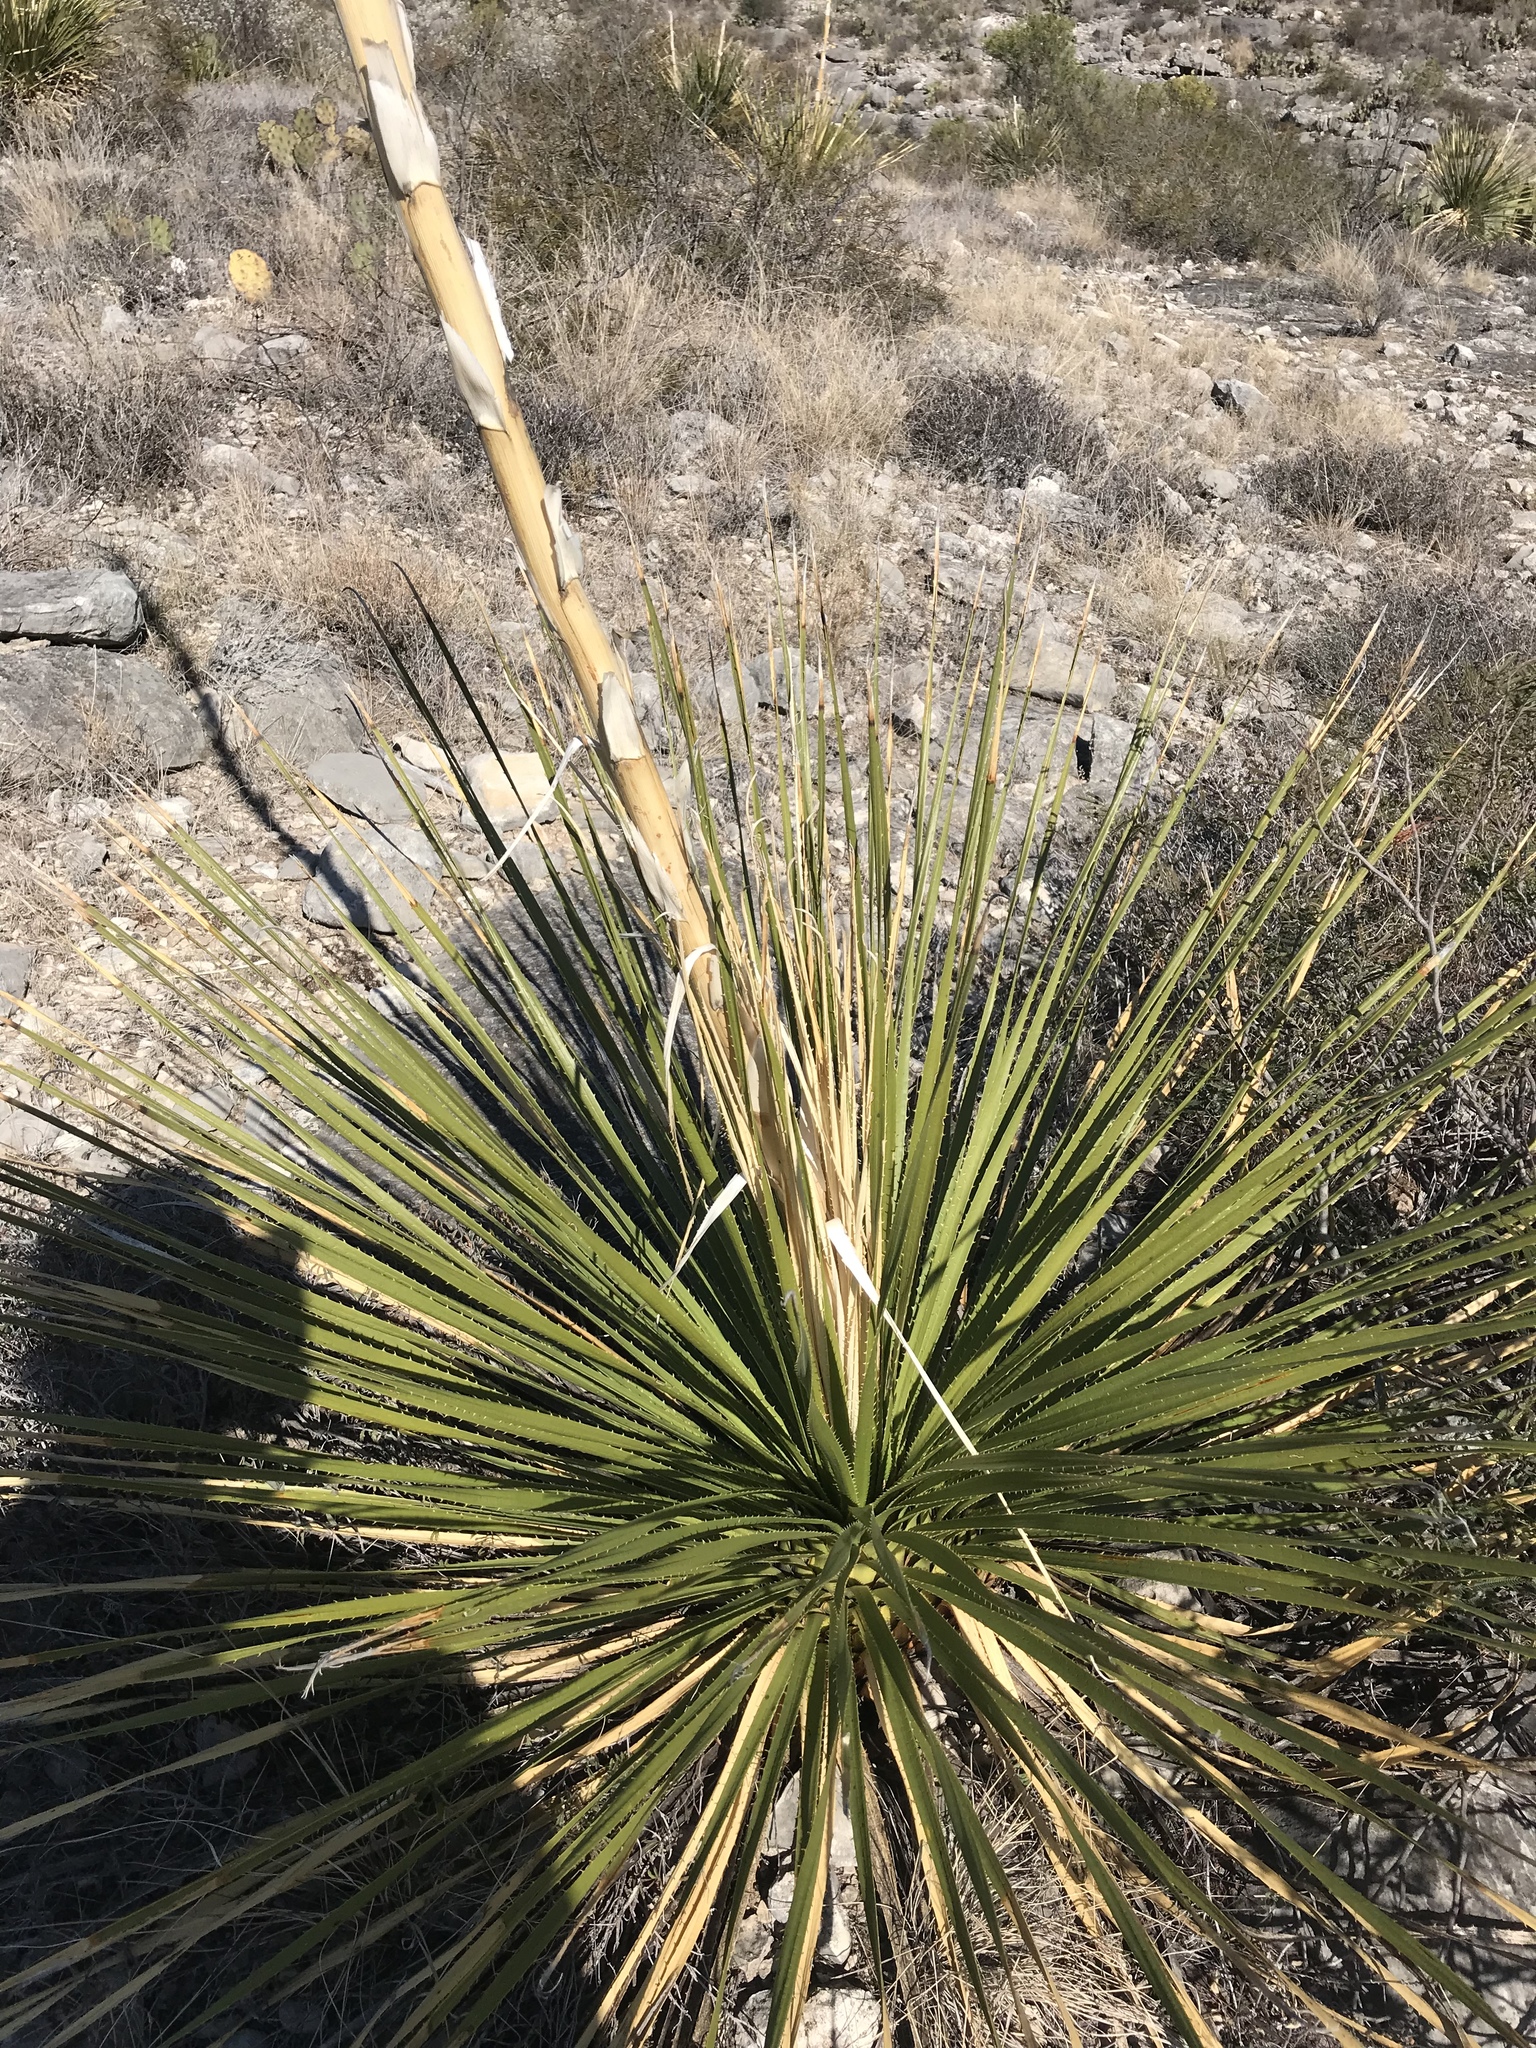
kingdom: Plantae
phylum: Tracheophyta
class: Liliopsida
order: Asparagales
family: Asparagaceae
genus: Dasylirion
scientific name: Dasylirion texanum
